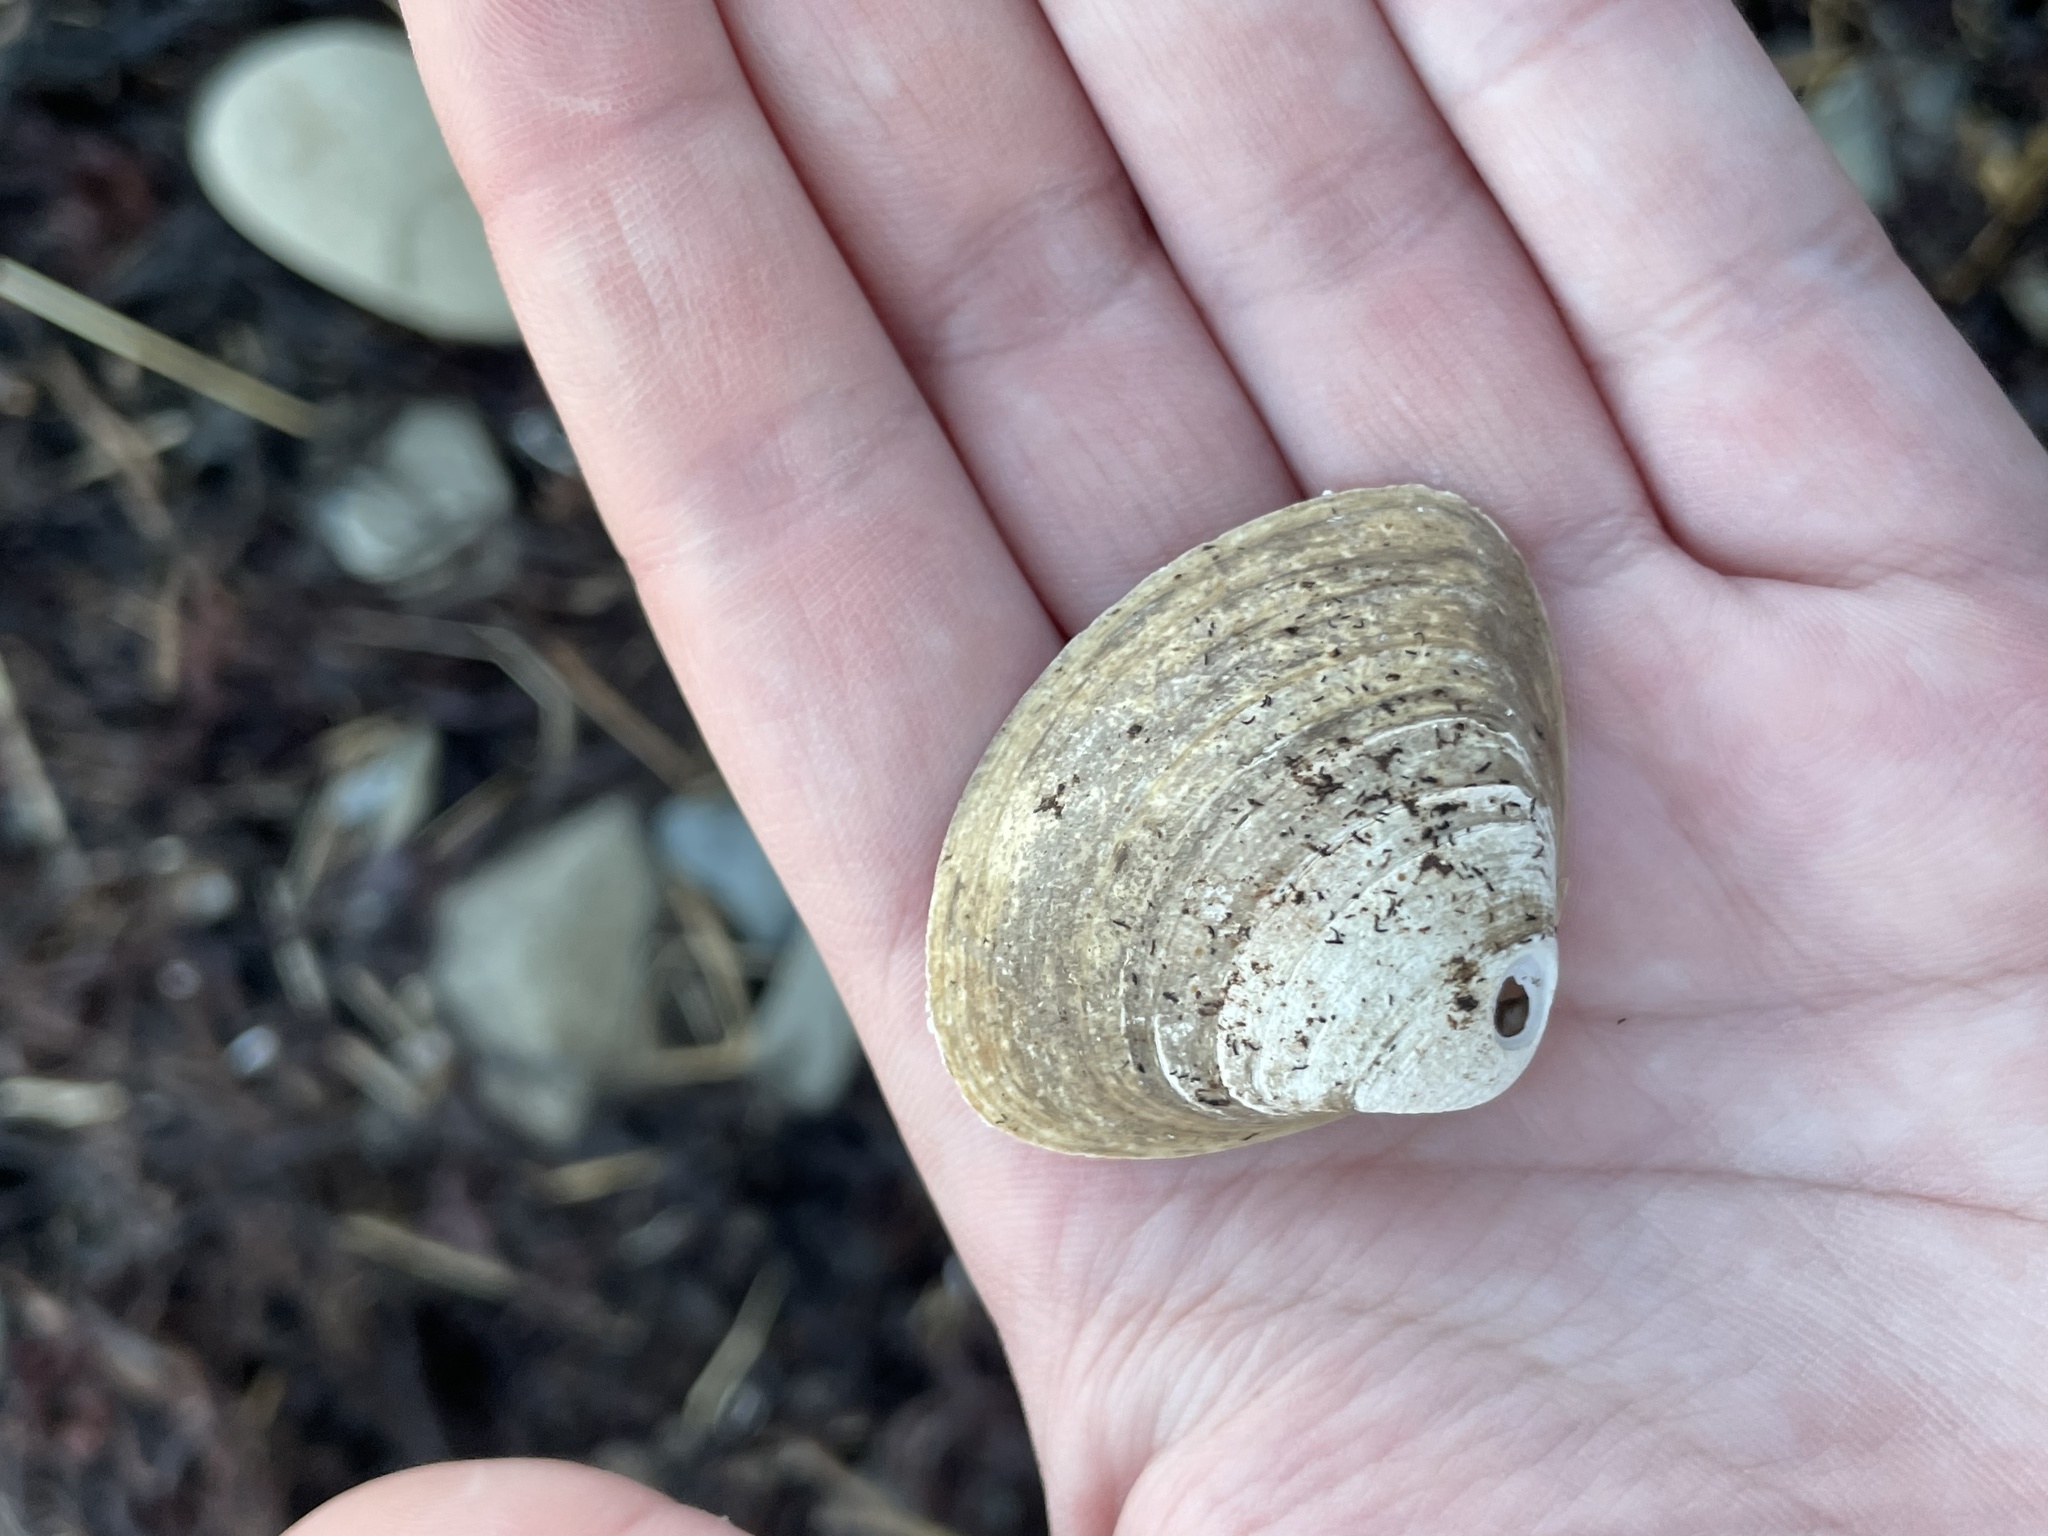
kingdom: Animalia
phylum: Mollusca
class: Bivalvia
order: Venerida
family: Mactridae
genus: Spisula
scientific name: Spisula solidissima
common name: Atlantic surf clam
